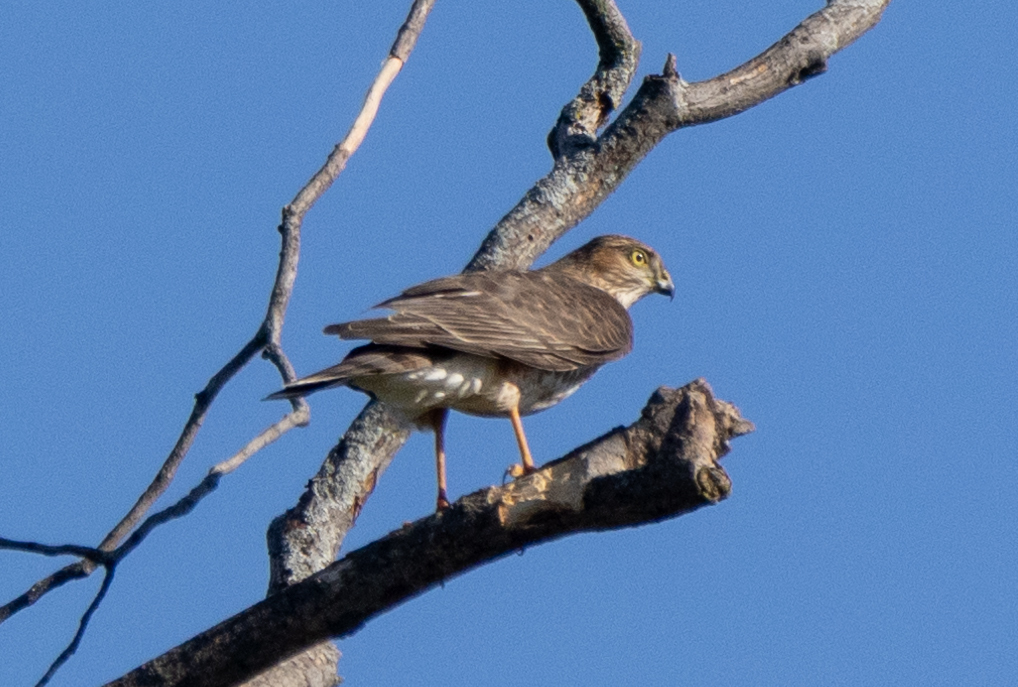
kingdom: Animalia
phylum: Chordata
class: Aves
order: Accipitriformes
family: Accipitridae
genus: Accipiter
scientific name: Accipiter striatus
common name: Sharp-shinned hawk
